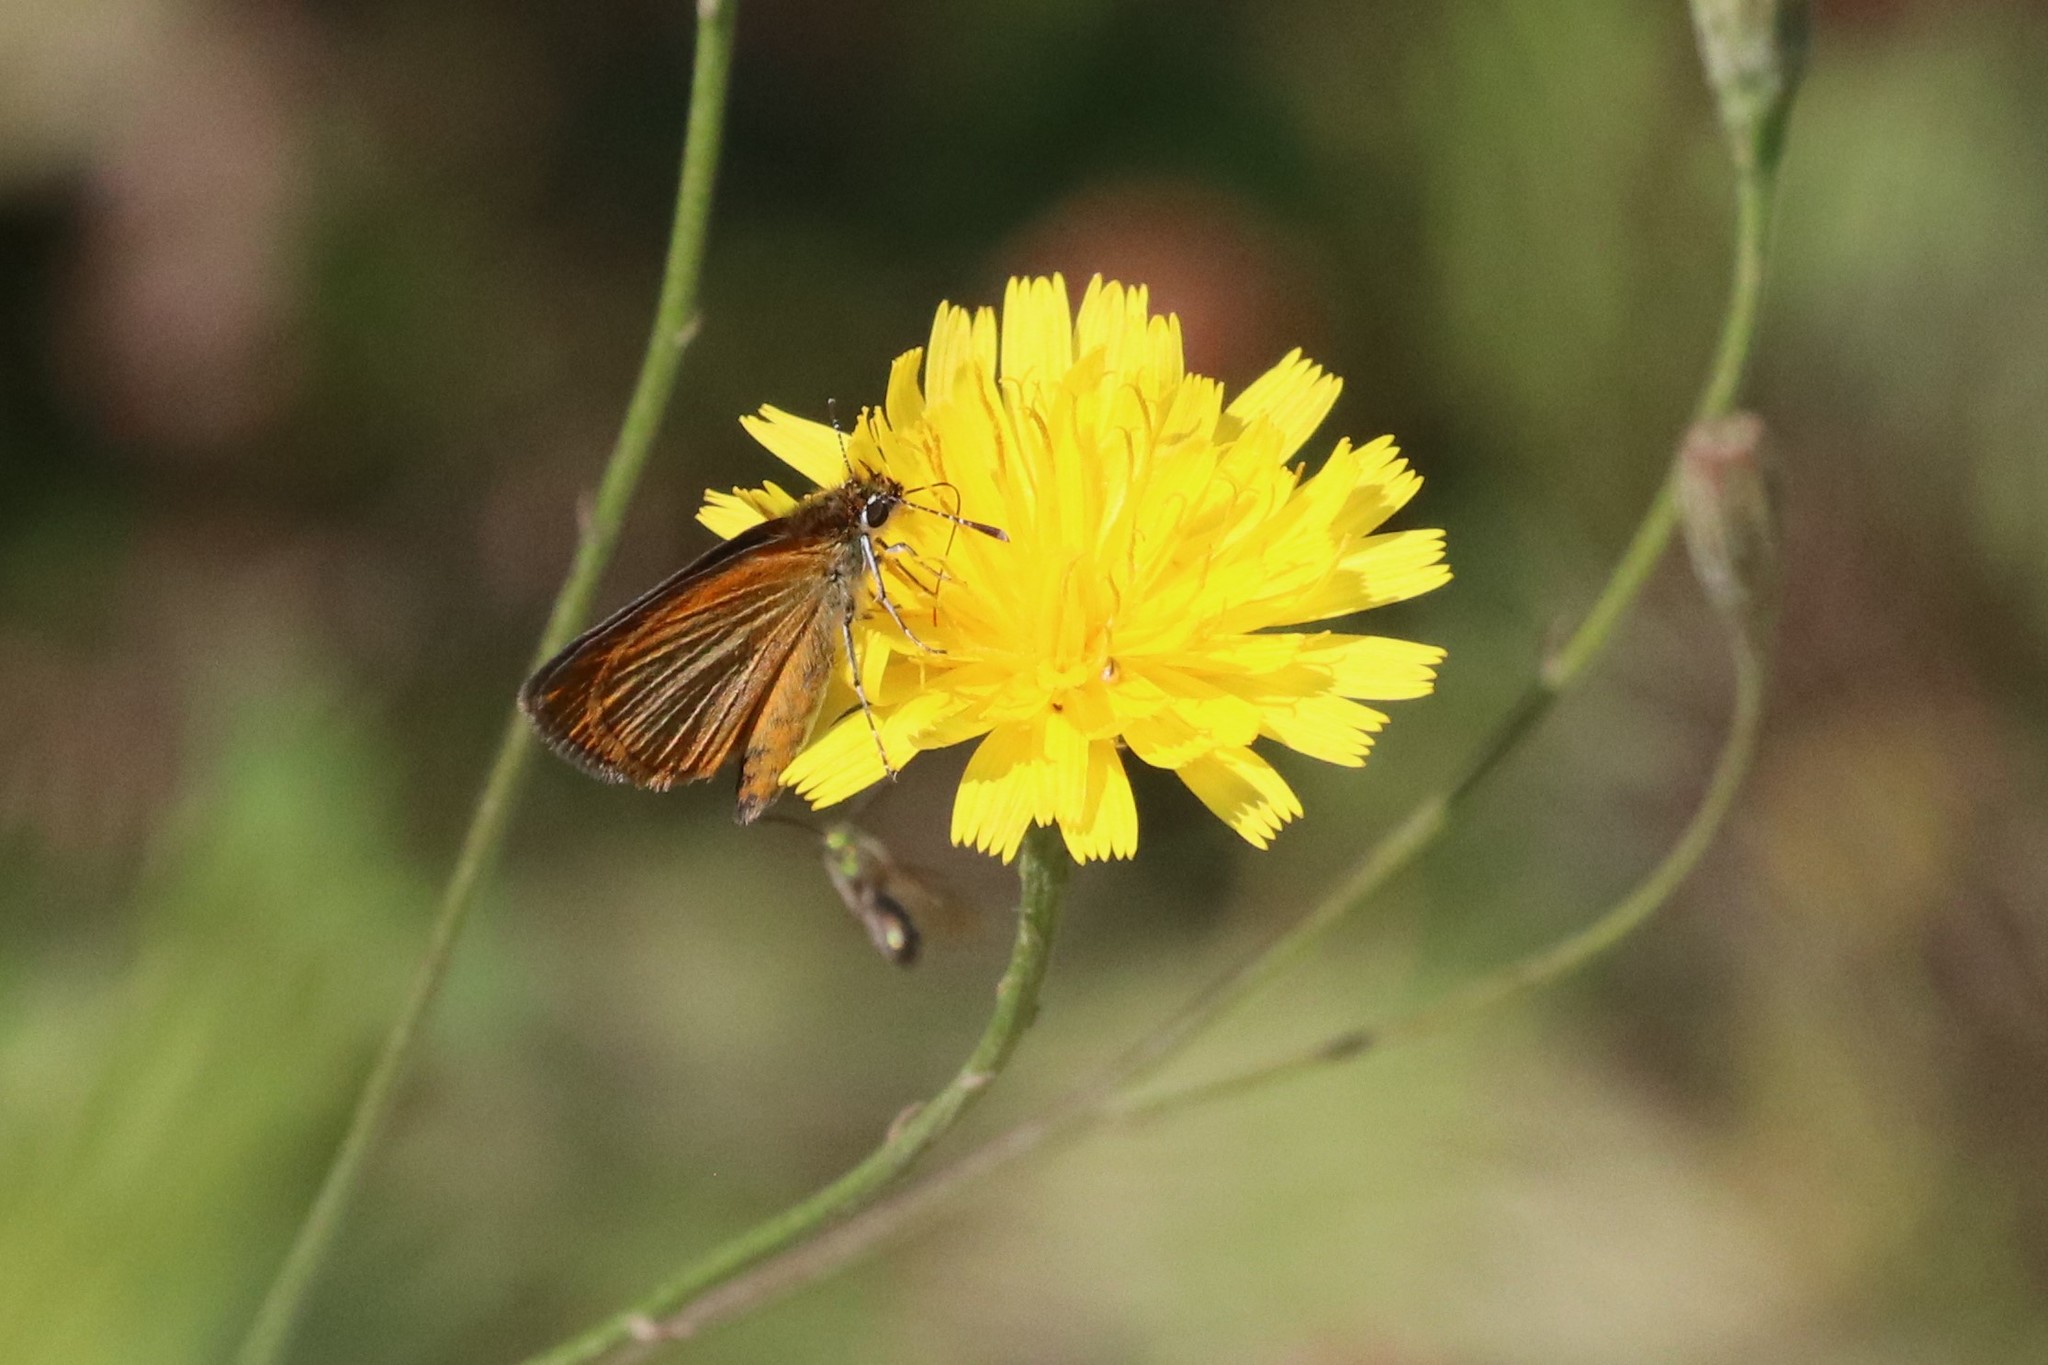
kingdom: Animalia
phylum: Arthropoda
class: Insecta
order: Lepidoptera
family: Hesperiidae
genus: Ancyloxypha
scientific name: Ancyloxypha numitor
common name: Least skipper
